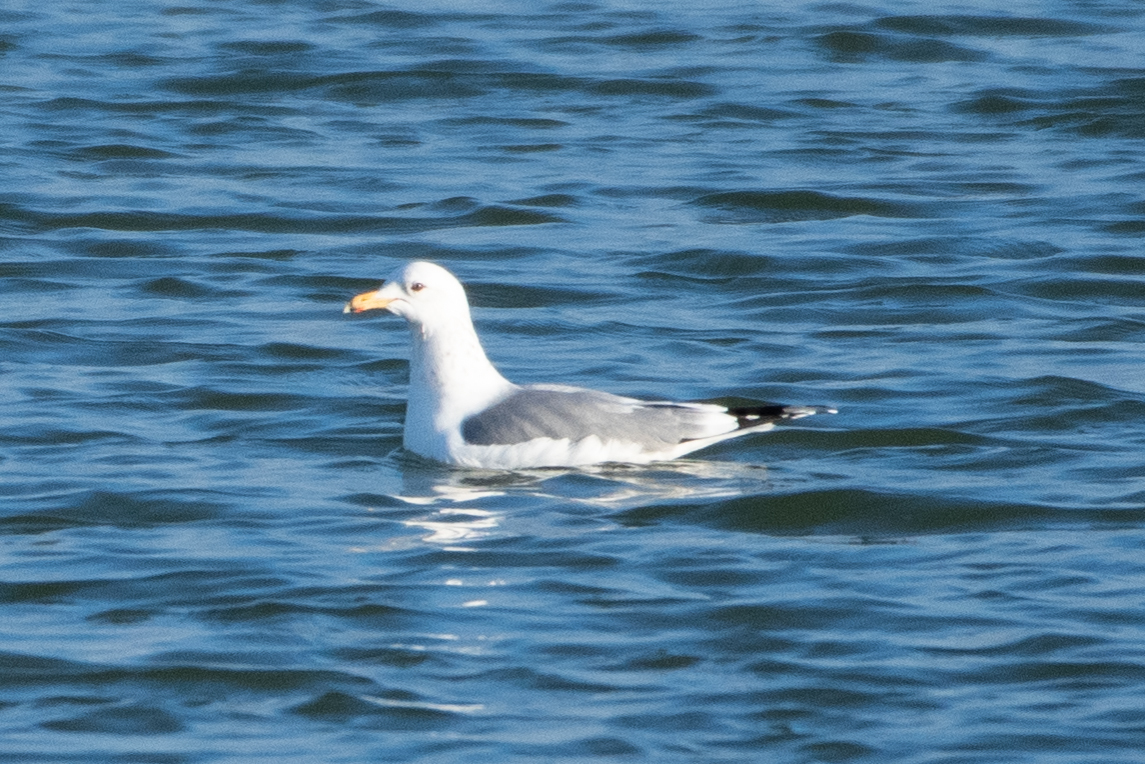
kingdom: Animalia
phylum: Chordata
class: Aves
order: Charadriiformes
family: Laridae
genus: Larus
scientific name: Larus californicus
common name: California gull
